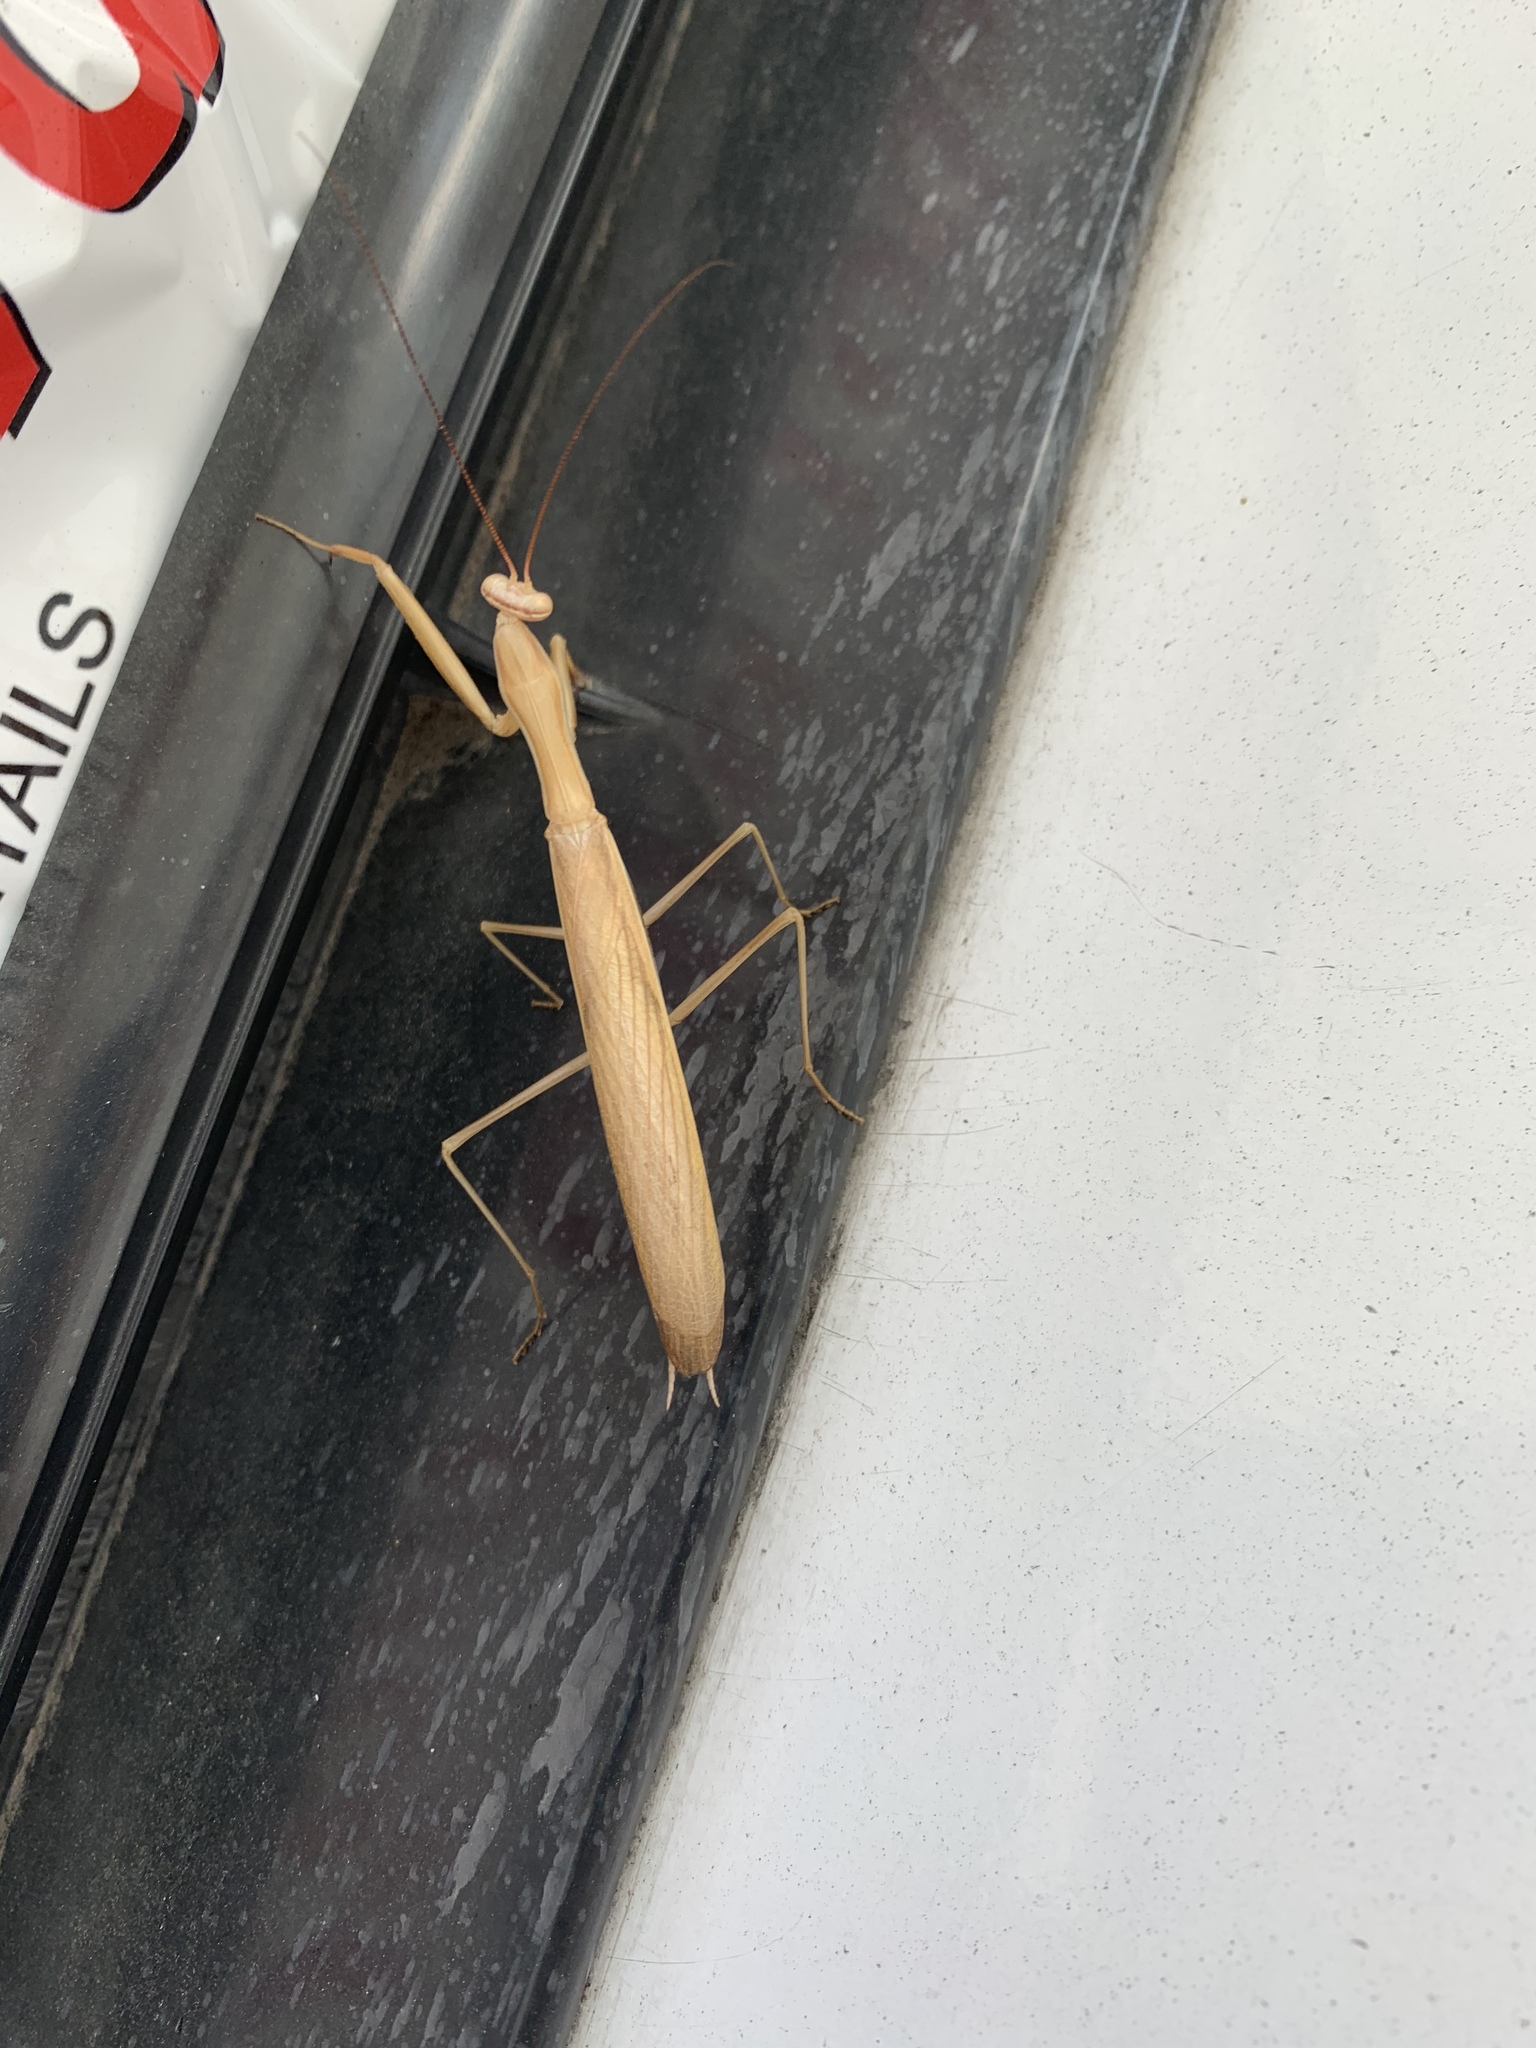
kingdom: Animalia
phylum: Arthropoda
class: Insecta
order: Mantodea
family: Mantidae
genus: Mantis
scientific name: Mantis religiosa
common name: Praying mantis
